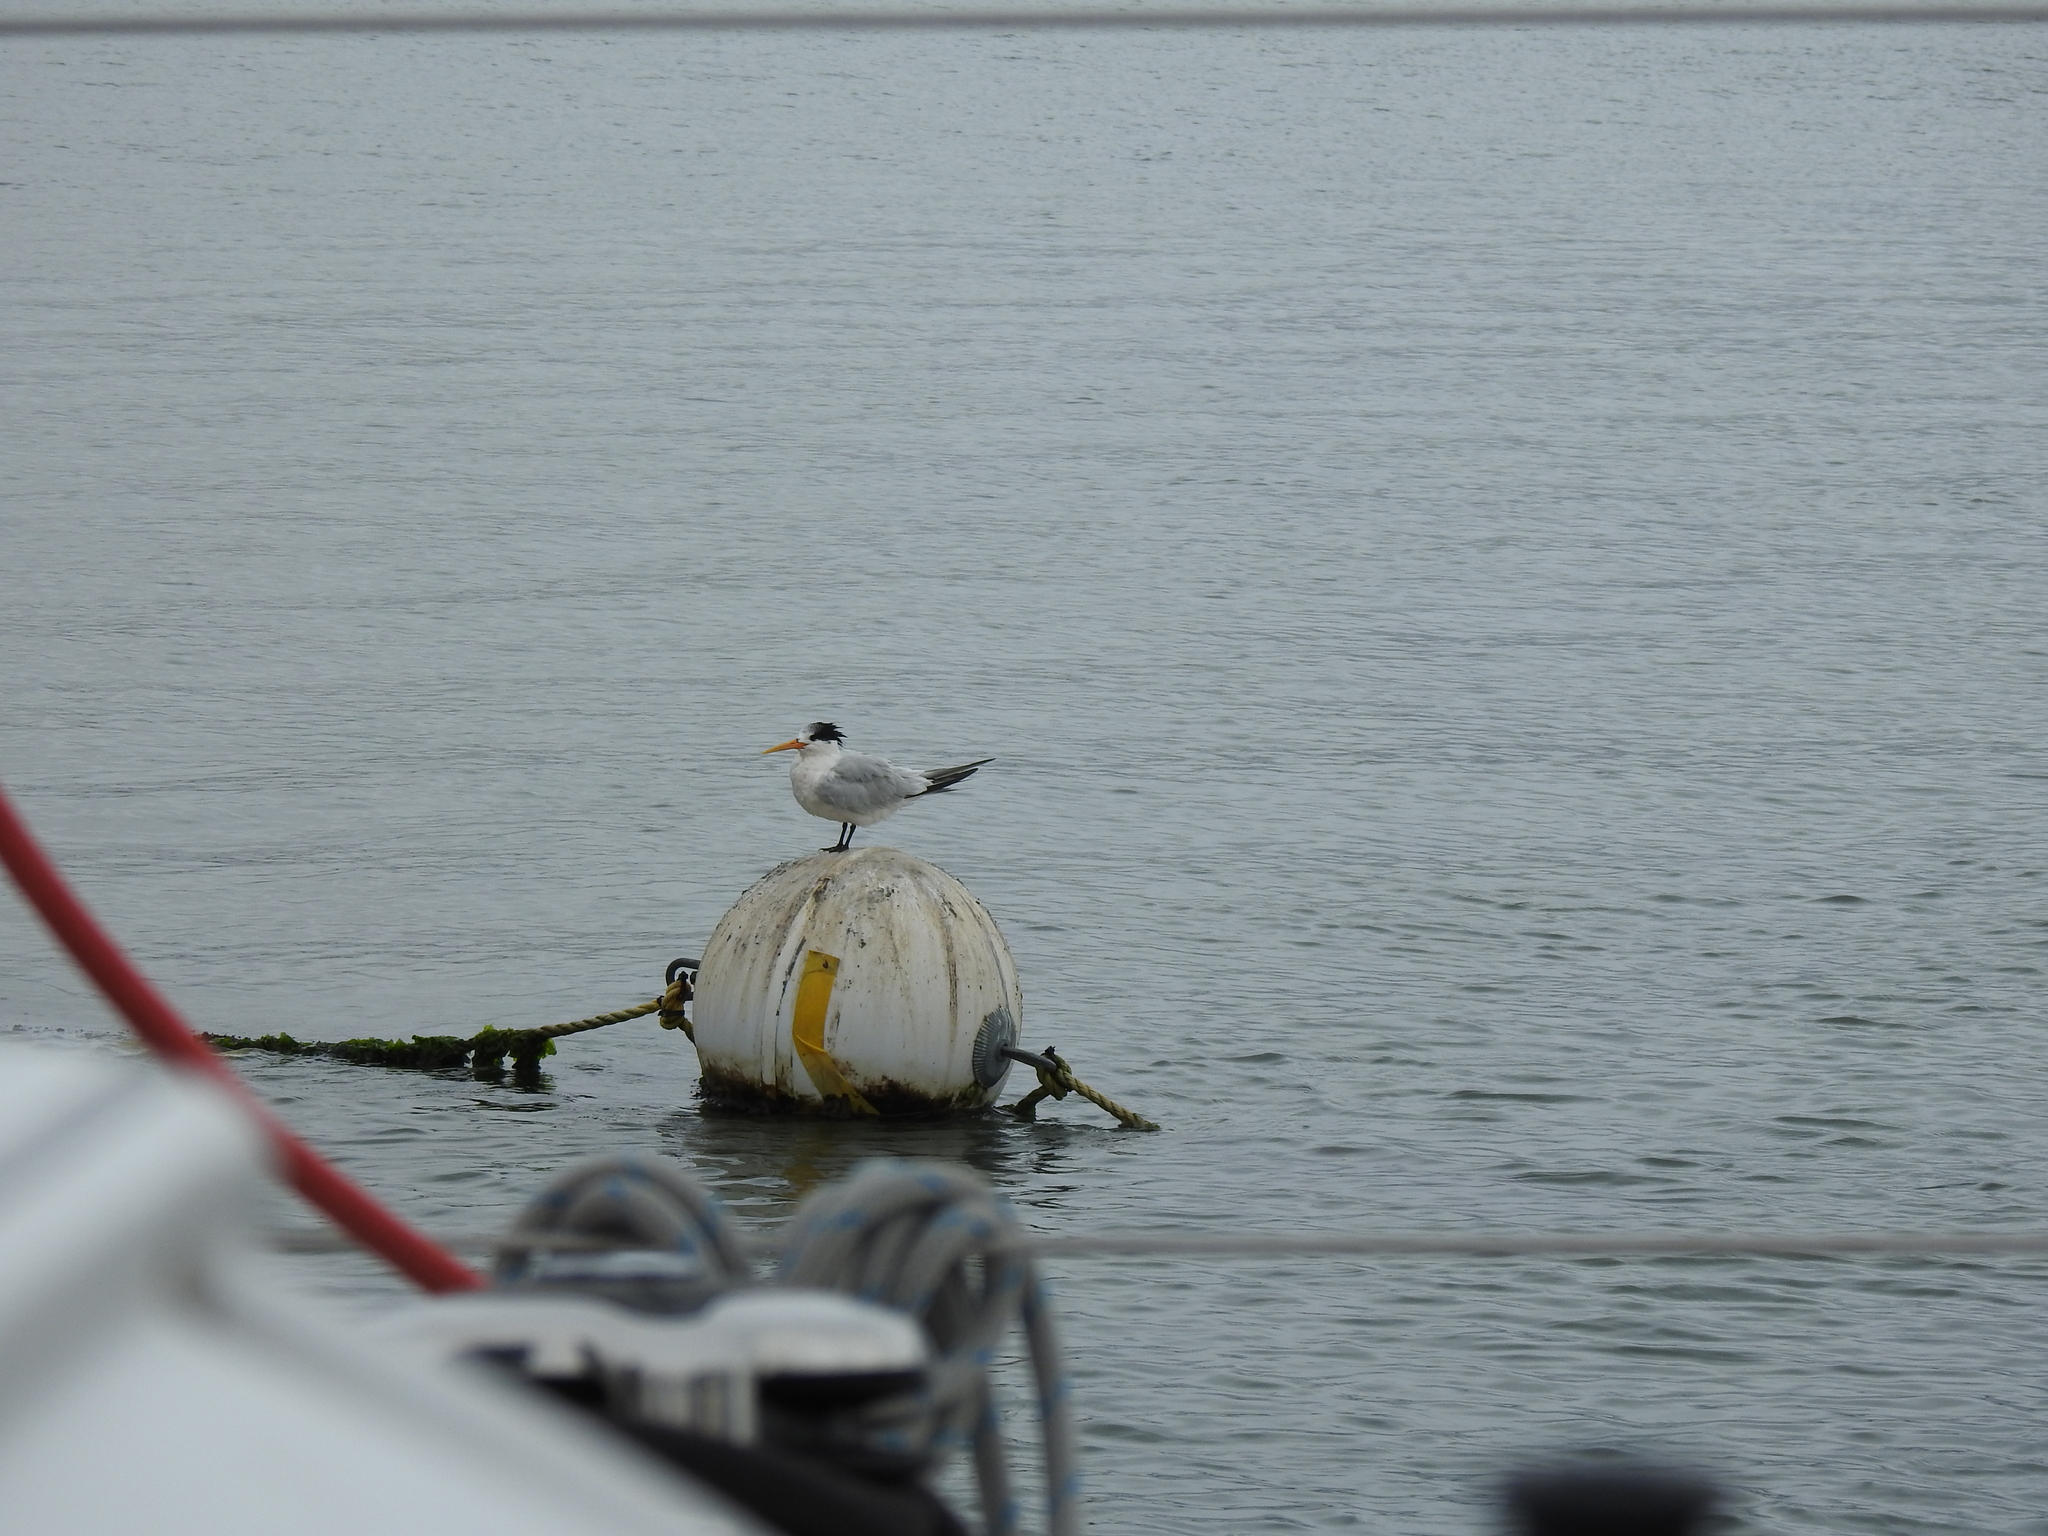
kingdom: Animalia
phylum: Chordata
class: Aves
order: Charadriiformes
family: Laridae
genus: Thalasseus
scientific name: Thalasseus elegans
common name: Elegant tern
